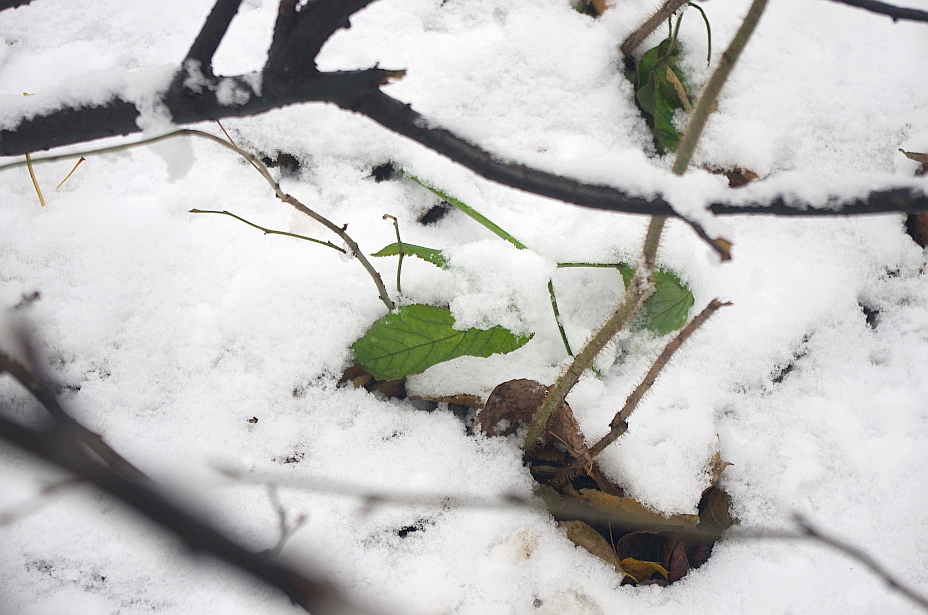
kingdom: Plantae
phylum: Tracheophyta
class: Magnoliopsida
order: Apiales
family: Apiaceae
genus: Aegopodium
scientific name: Aegopodium podagraria
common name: Ground-elder
